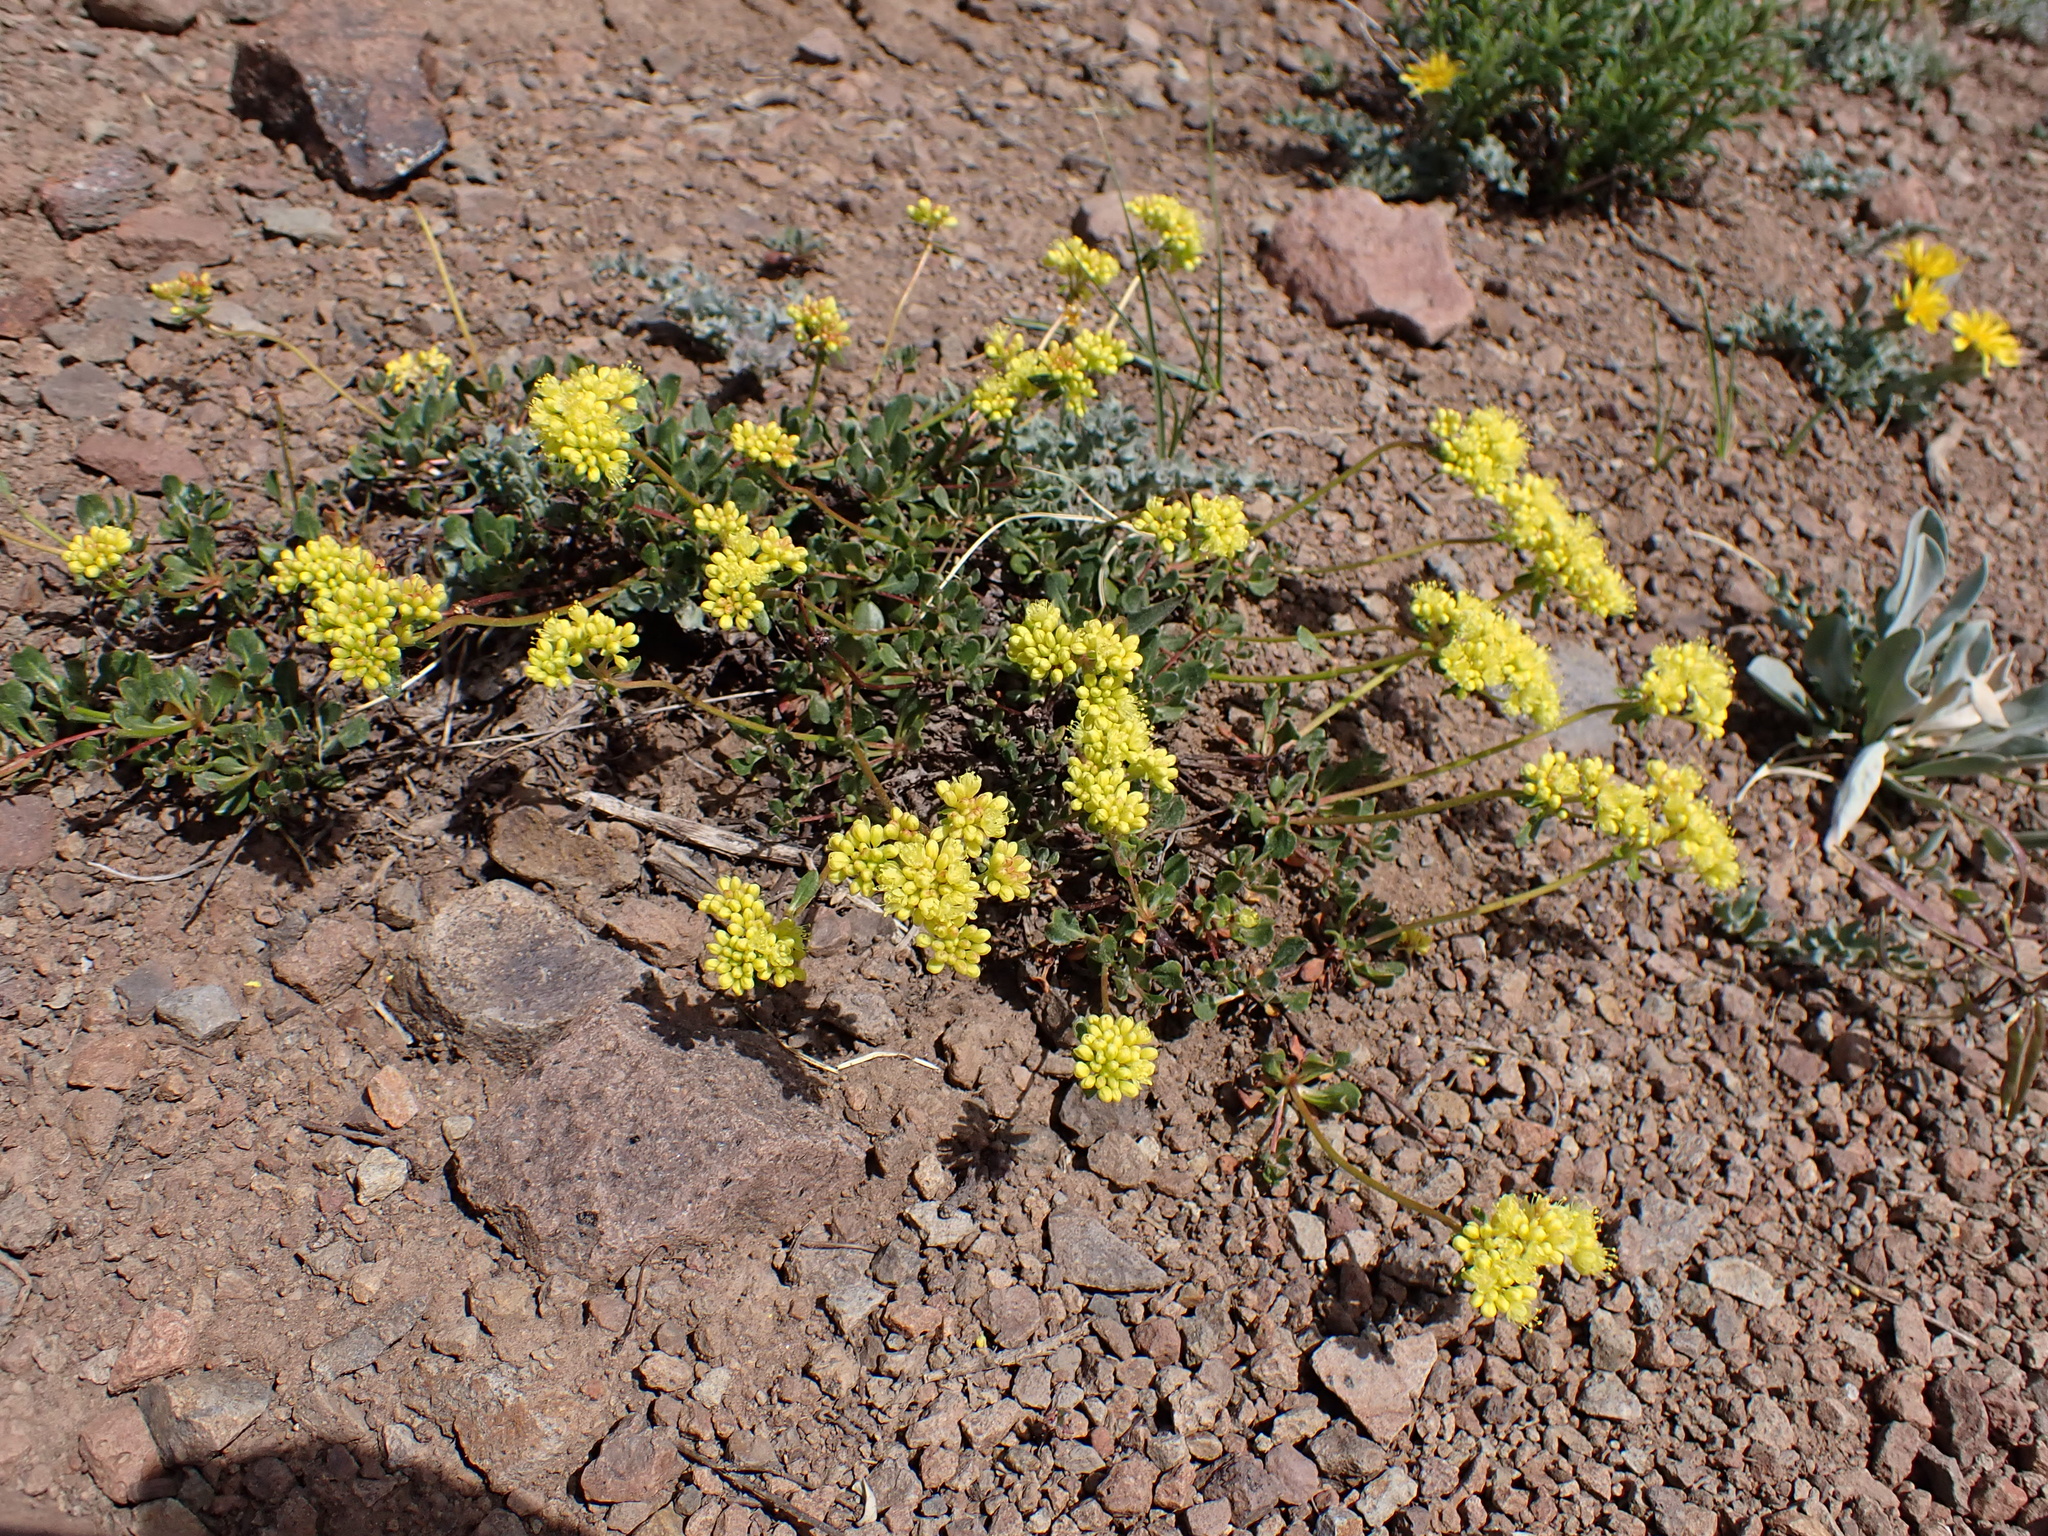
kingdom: Plantae
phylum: Tracheophyta
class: Magnoliopsida
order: Caryophyllales
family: Polygonaceae
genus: Eriogonum
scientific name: Eriogonum umbellatum
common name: Sulfur-buckwheat
